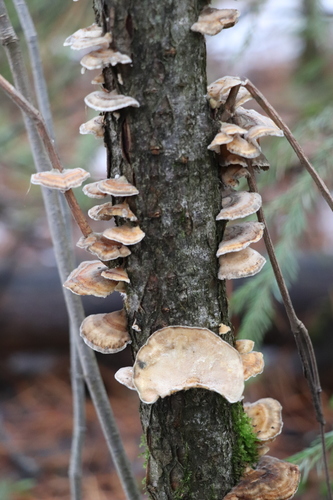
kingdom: Fungi
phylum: Basidiomycota
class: Agaricomycetes
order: Polyporales
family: Polyporaceae
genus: Trametes
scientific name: Trametes ochracea
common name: Ochre bracket
